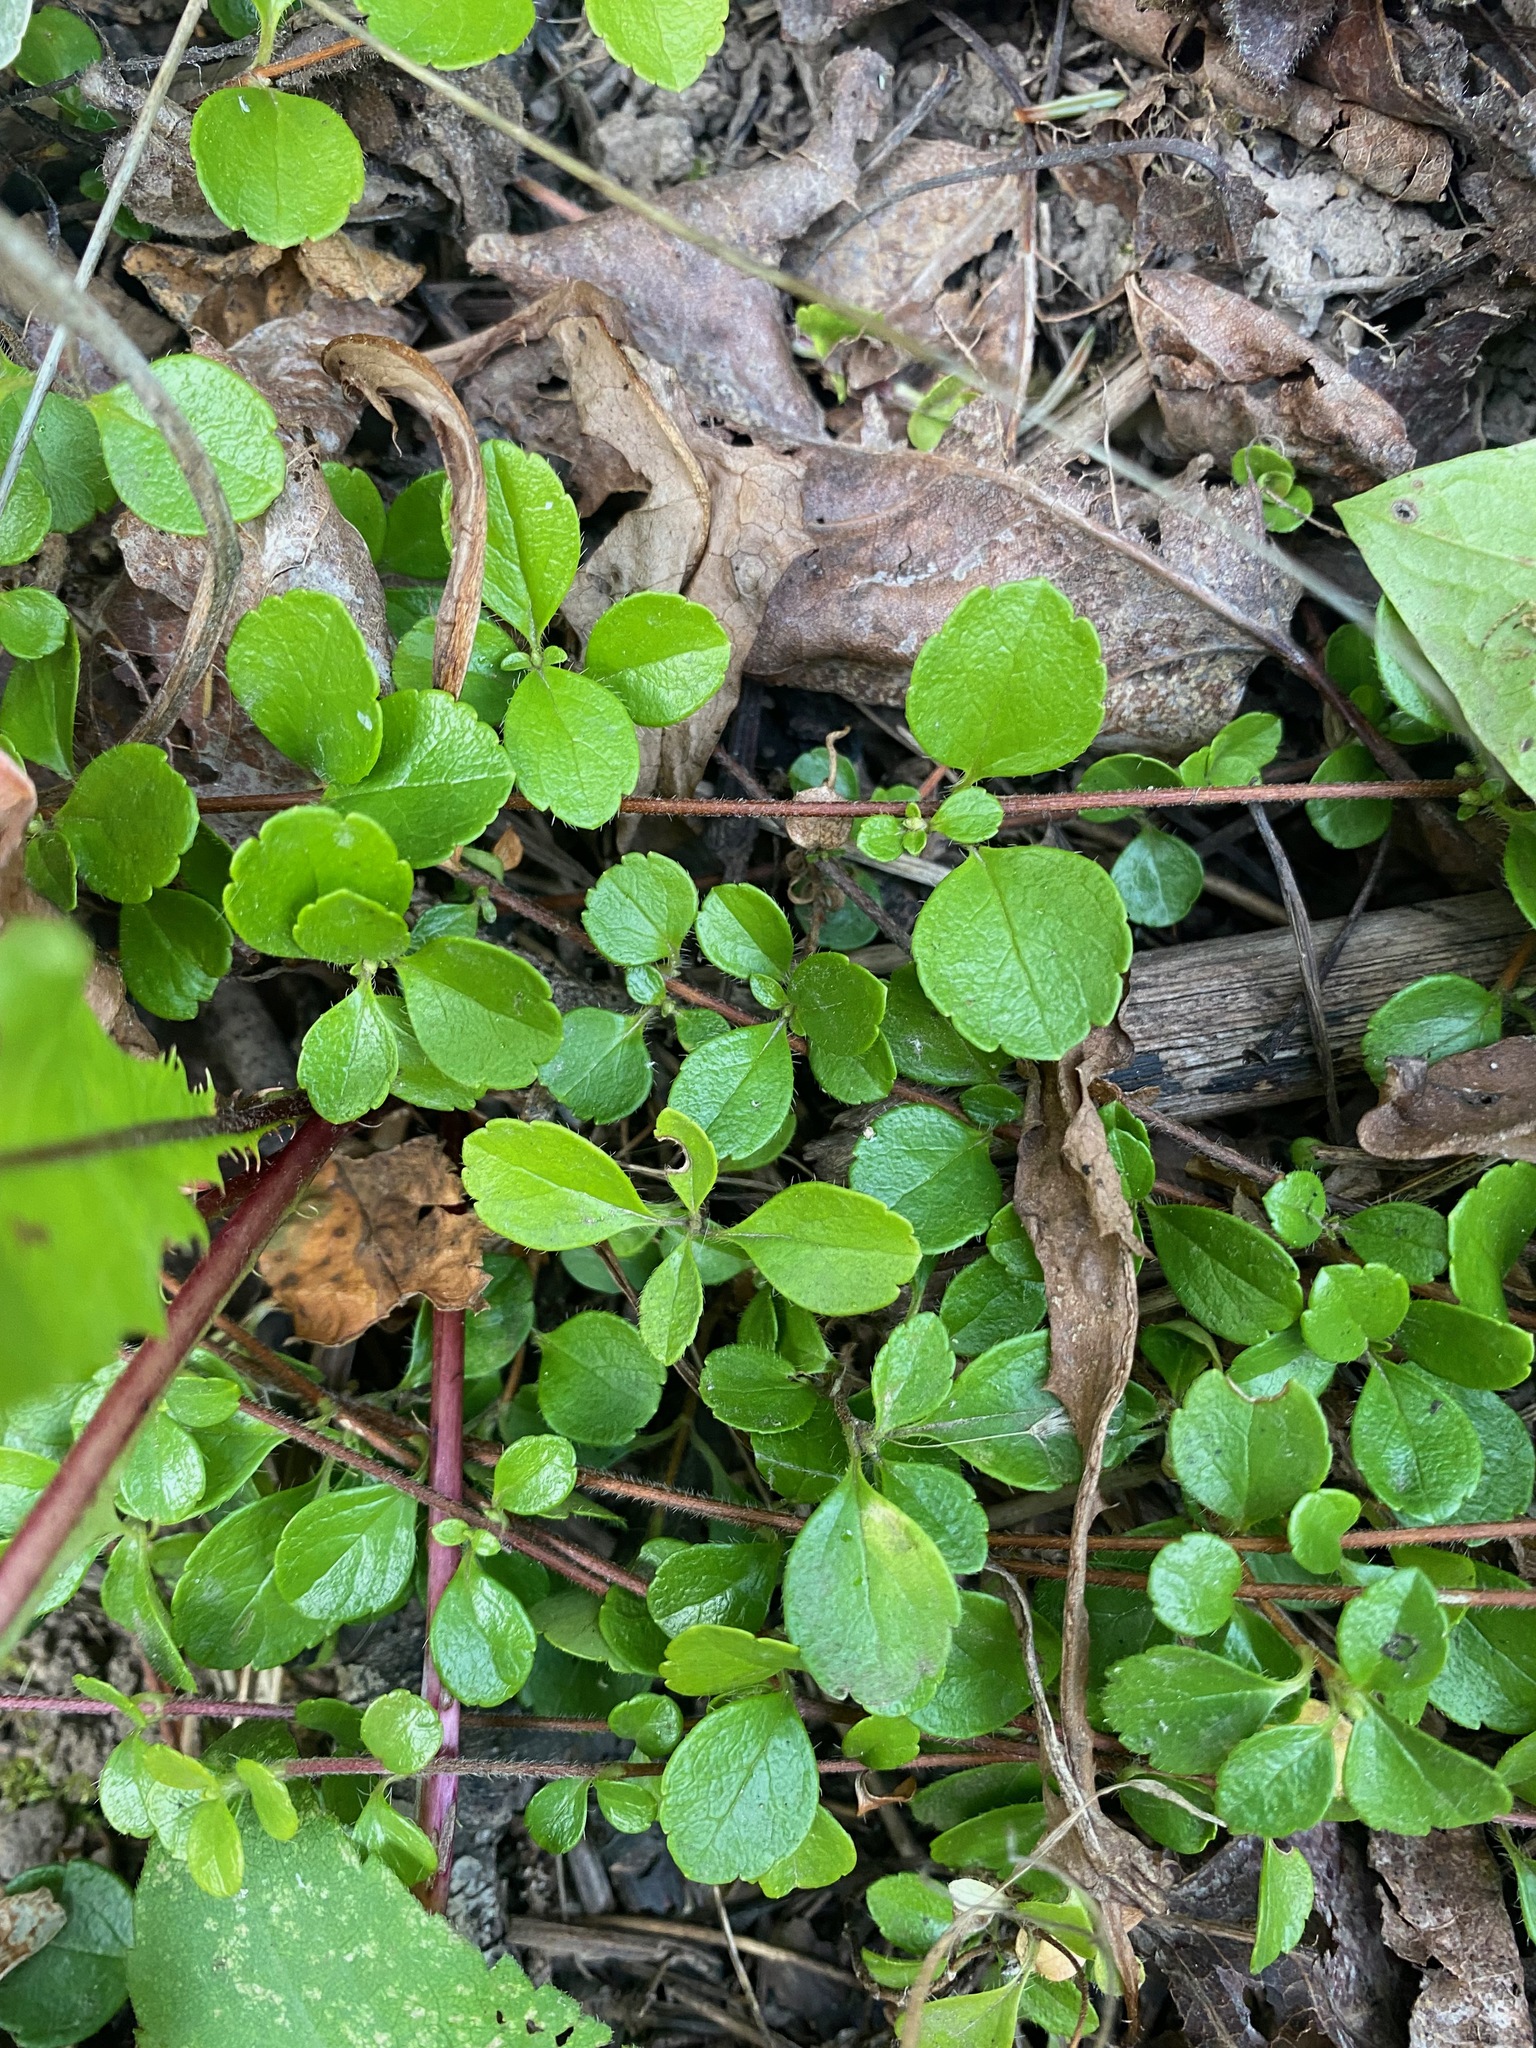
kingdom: Plantae
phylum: Tracheophyta
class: Magnoliopsida
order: Dipsacales
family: Caprifoliaceae
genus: Linnaea
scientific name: Linnaea borealis
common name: Twinflower
